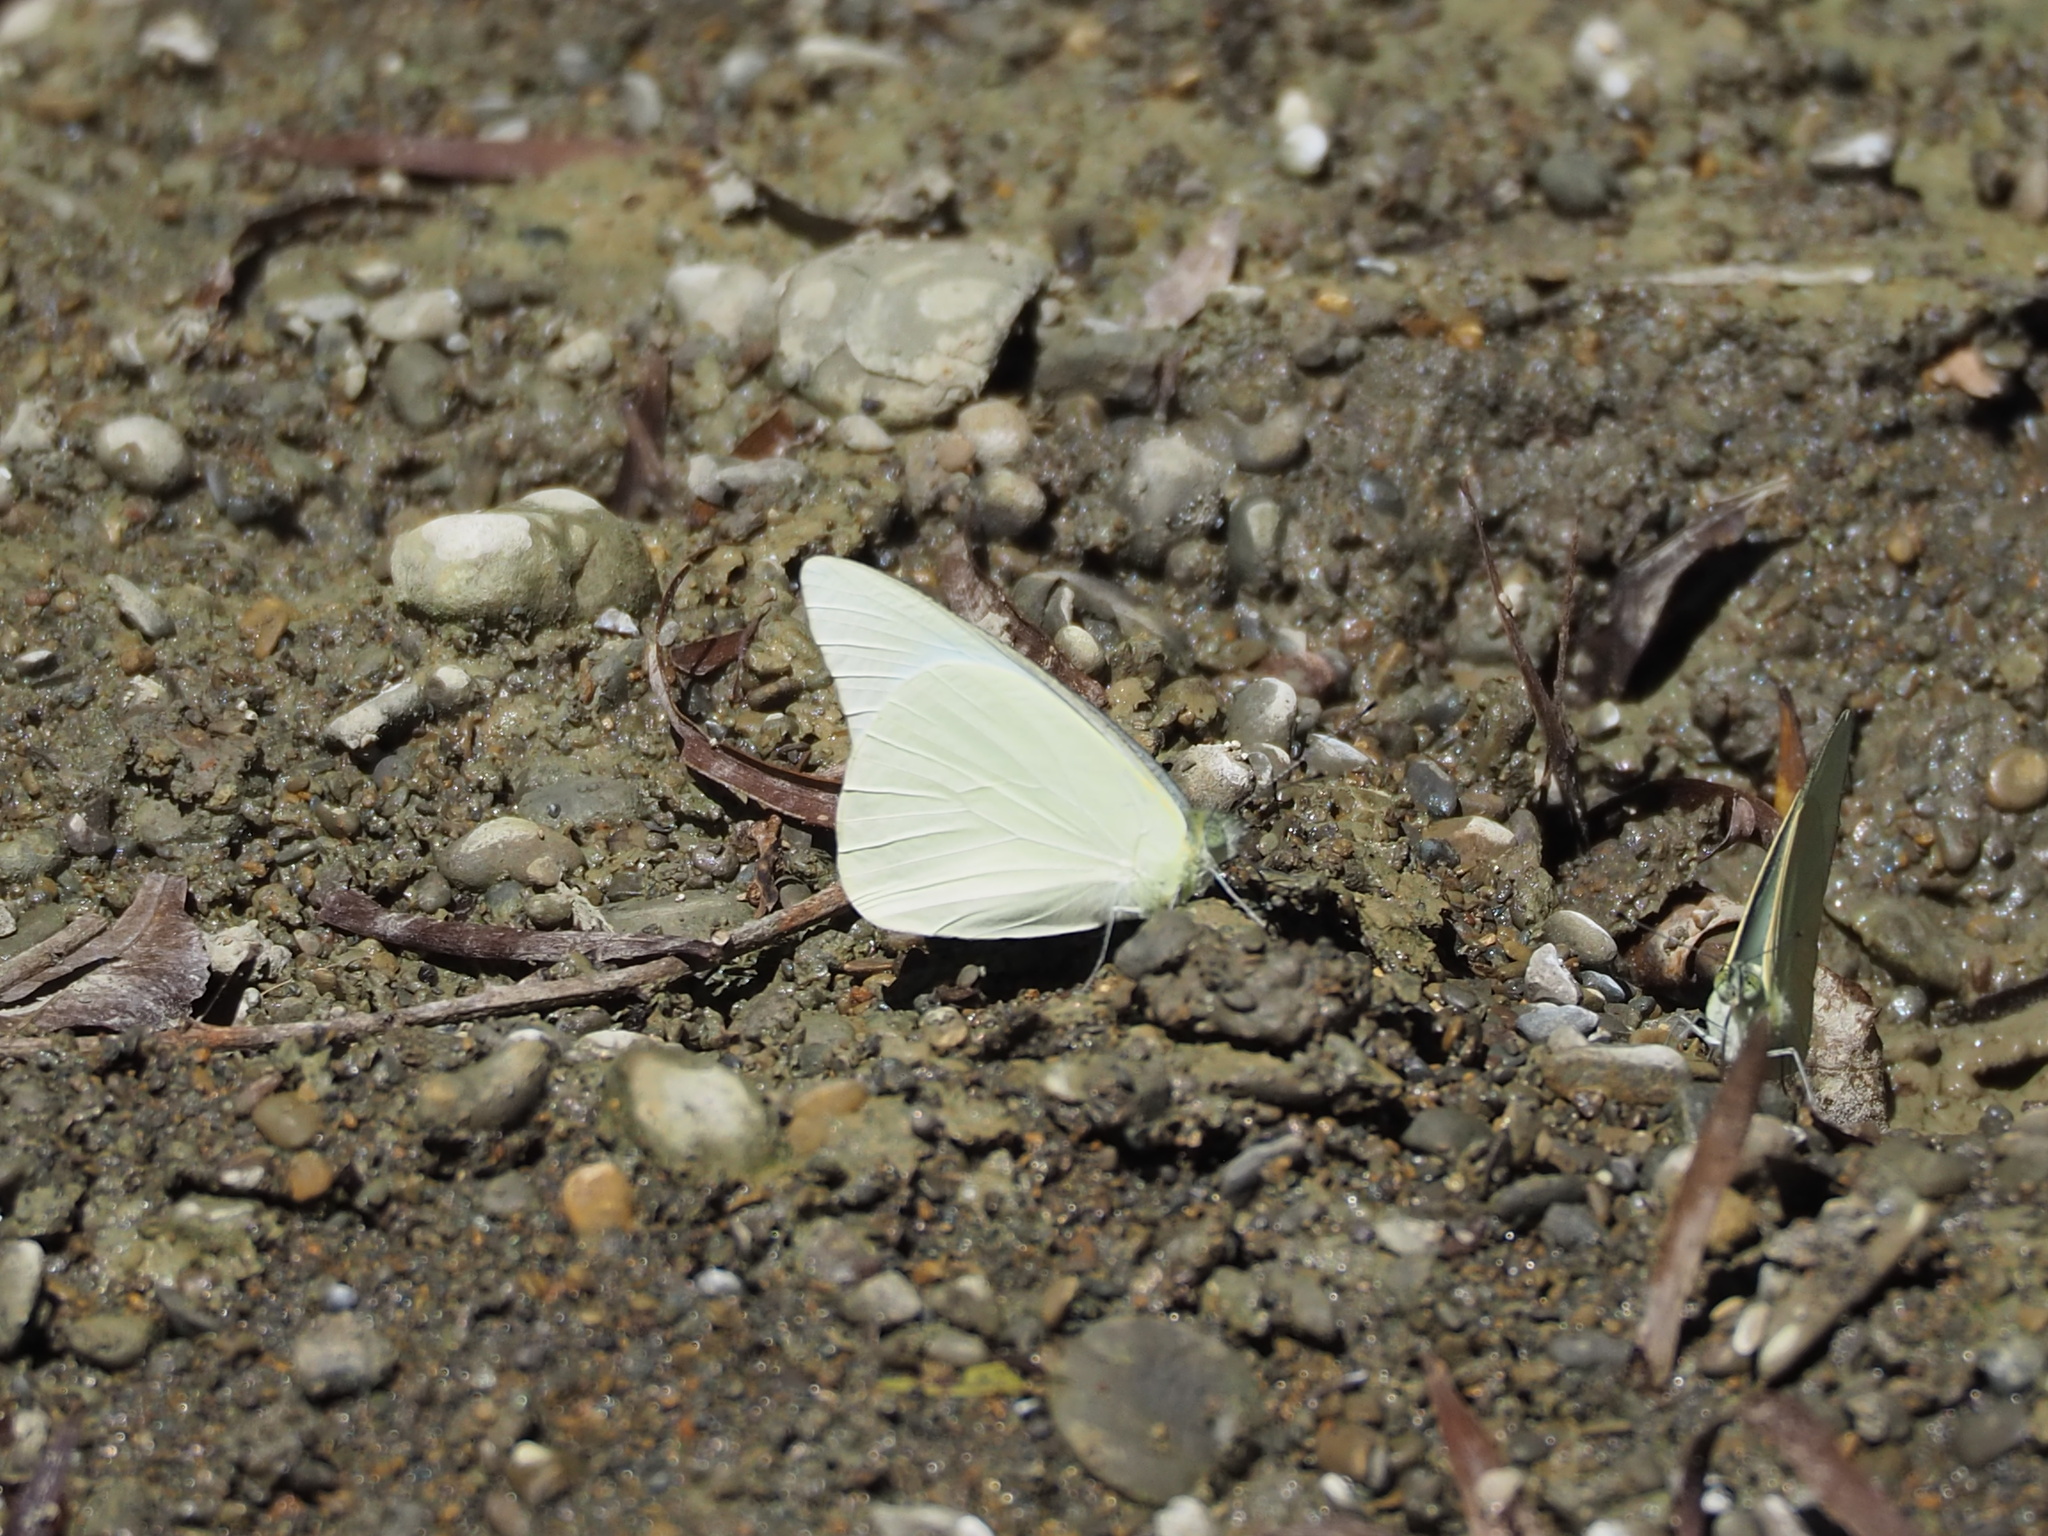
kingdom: Animalia
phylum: Arthropoda
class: Insecta
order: Lepidoptera
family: Pieridae
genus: Appias
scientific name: Appias albina
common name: Common albatross
